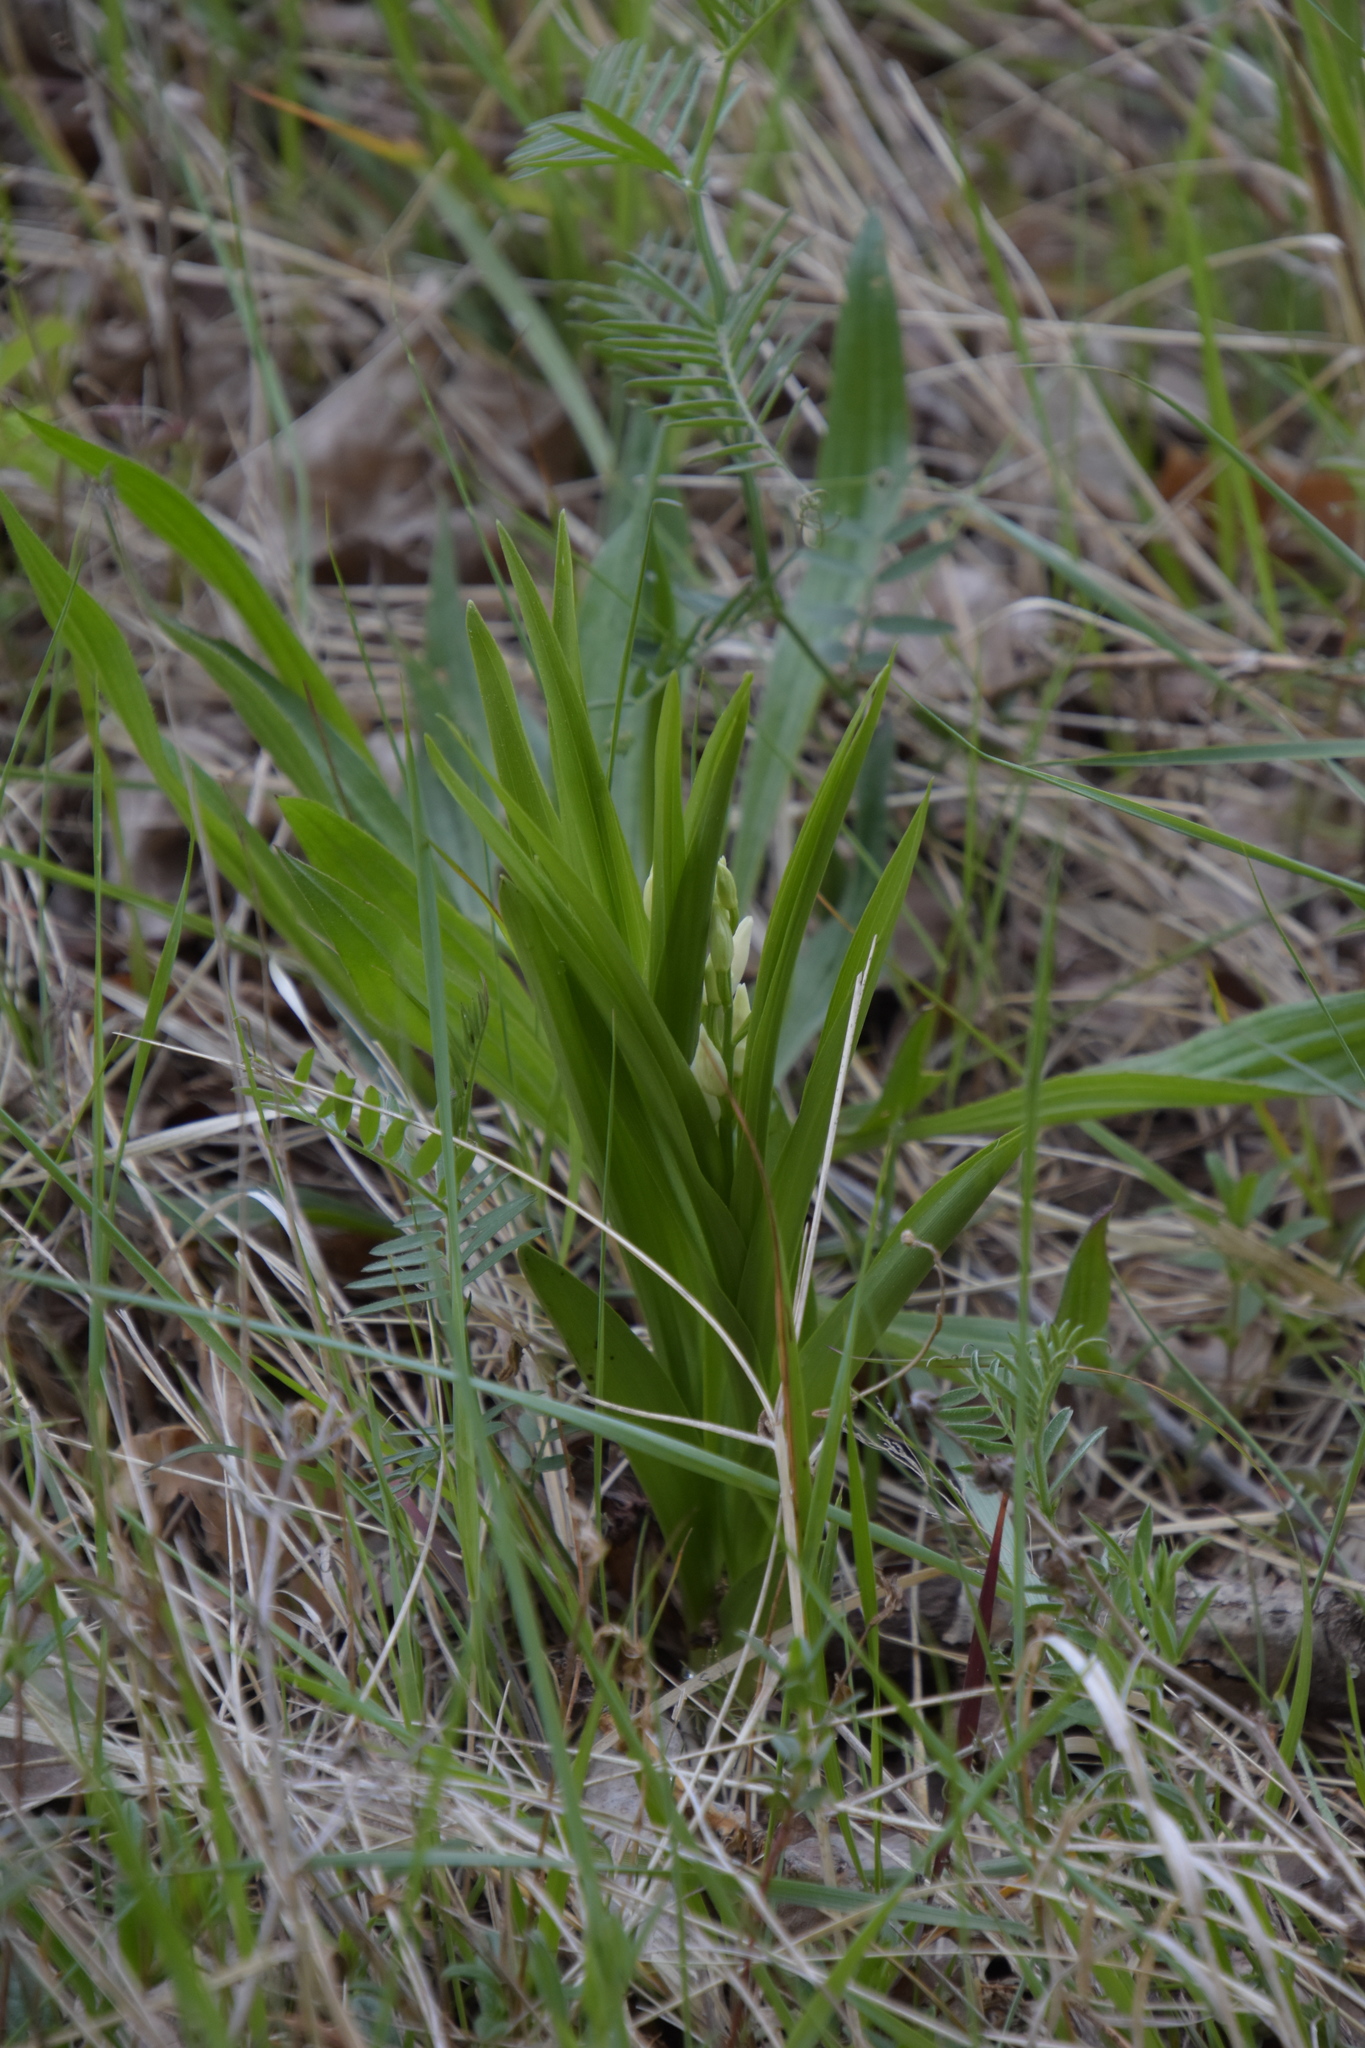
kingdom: Plantae
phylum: Tracheophyta
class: Liliopsida
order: Asparagales
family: Orchidaceae
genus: Cephalanthera
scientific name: Cephalanthera longifolia
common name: Narrow-leaved helleborine
